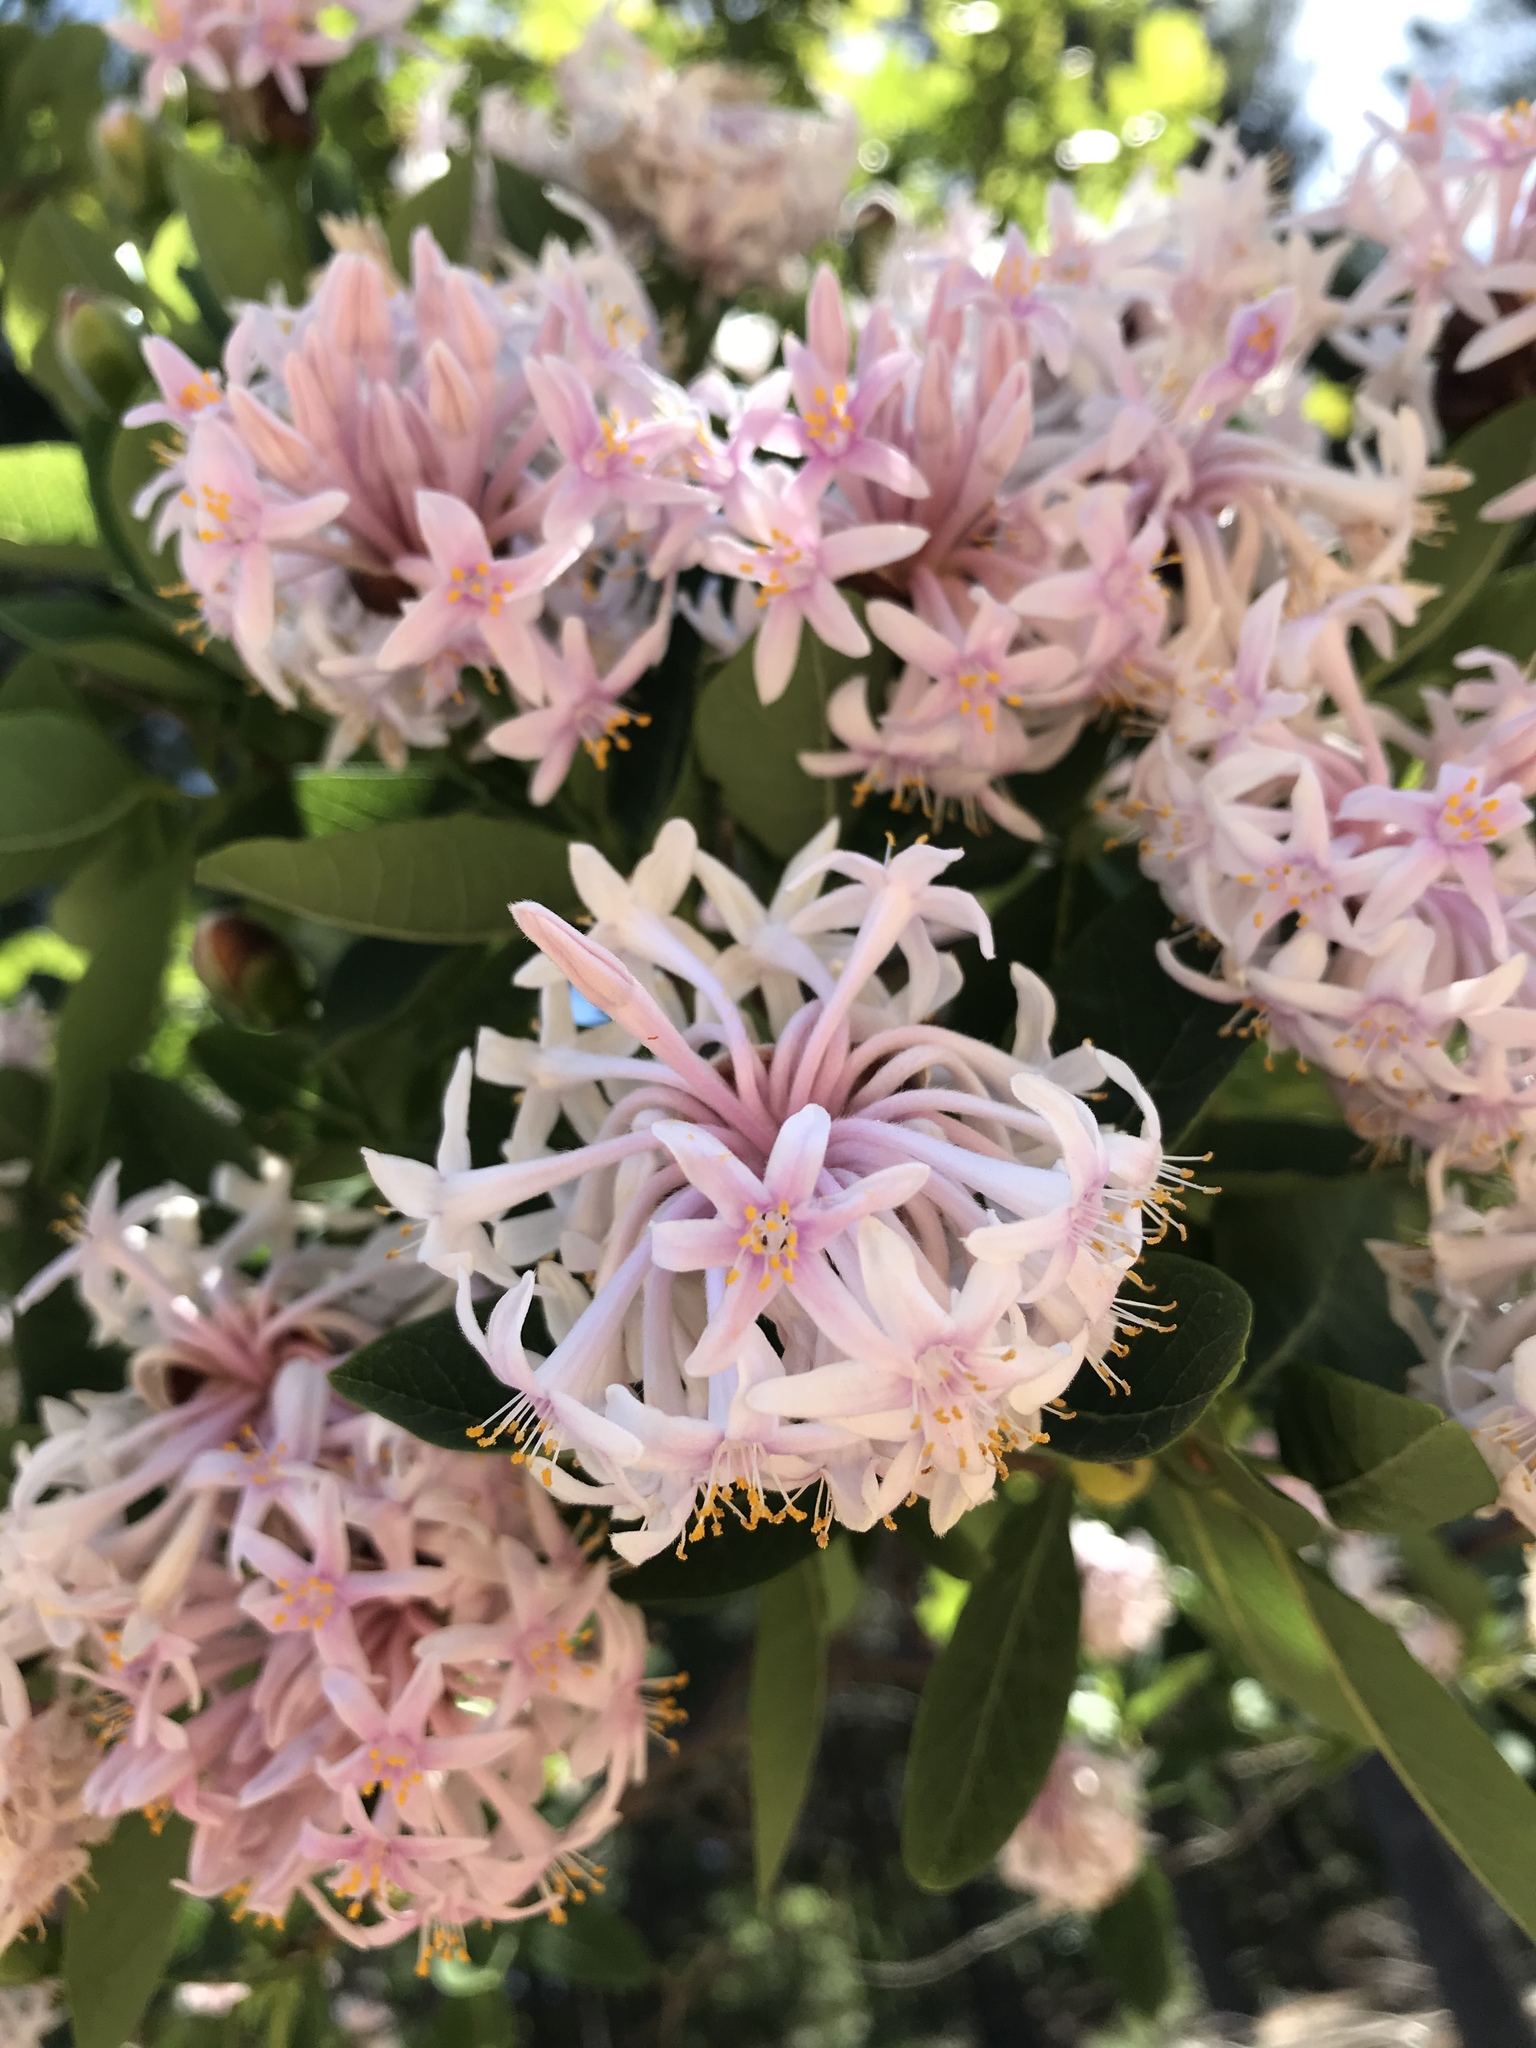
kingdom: Plantae
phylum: Tracheophyta
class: Magnoliopsida
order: Malvales
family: Thymelaeaceae
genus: Dais
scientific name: Dais cotinifolia
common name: Pompon tree
